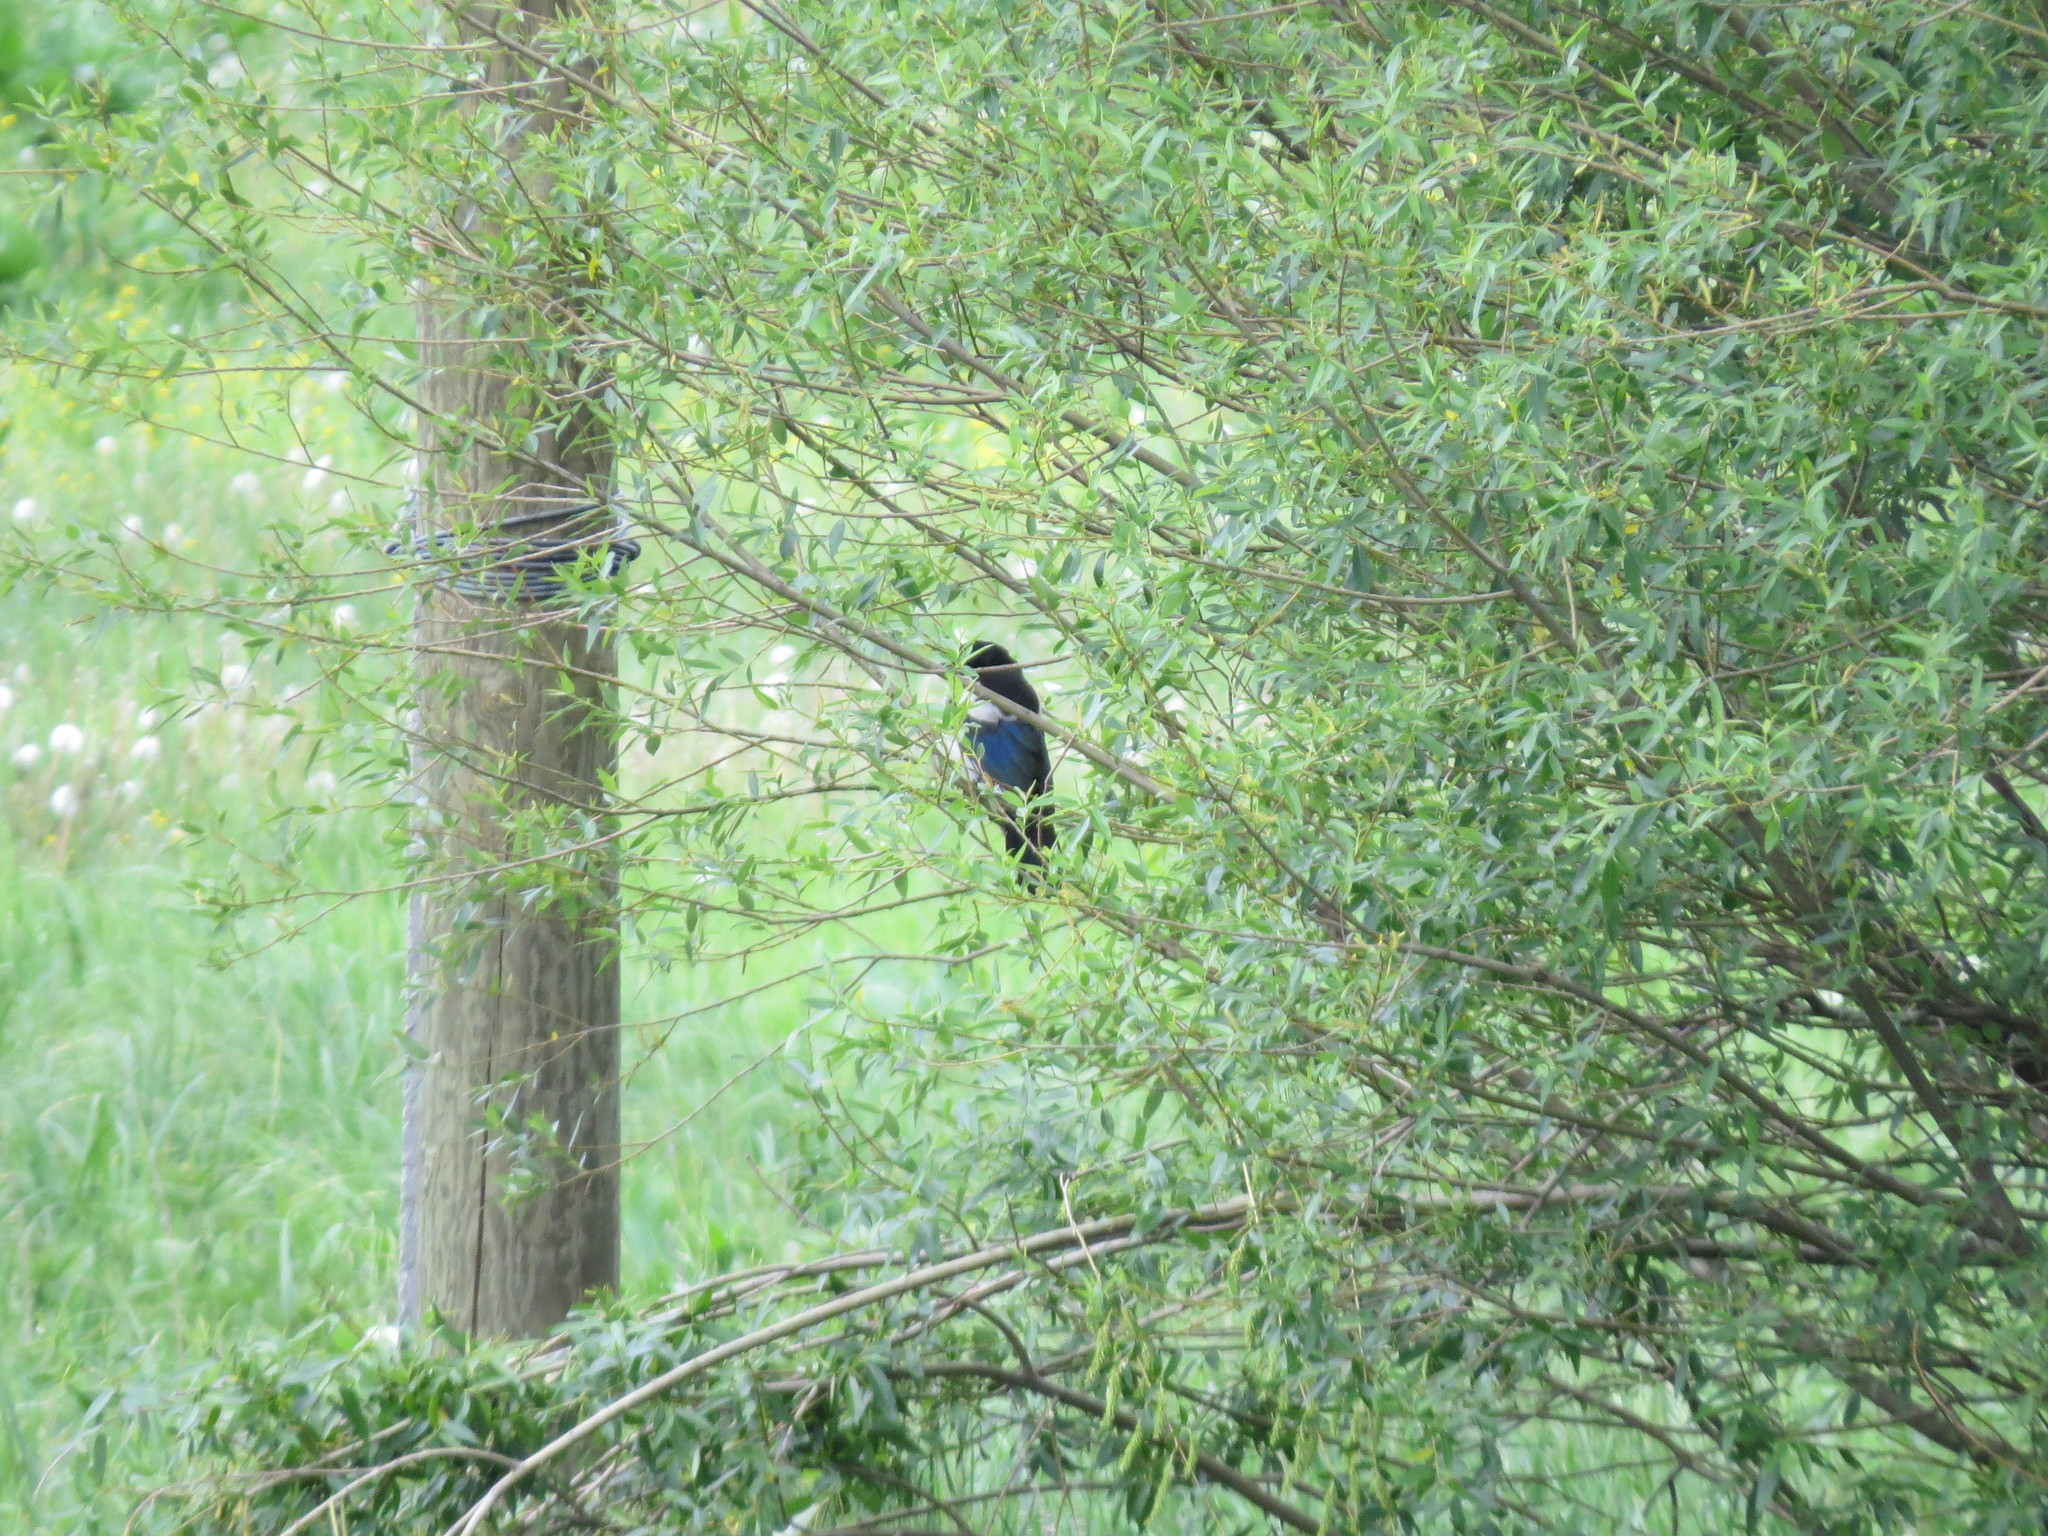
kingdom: Animalia
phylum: Chordata
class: Aves
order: Passeriformes
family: Corvidae
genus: Pica
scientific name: Pica pica
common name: Eurasian magpie
